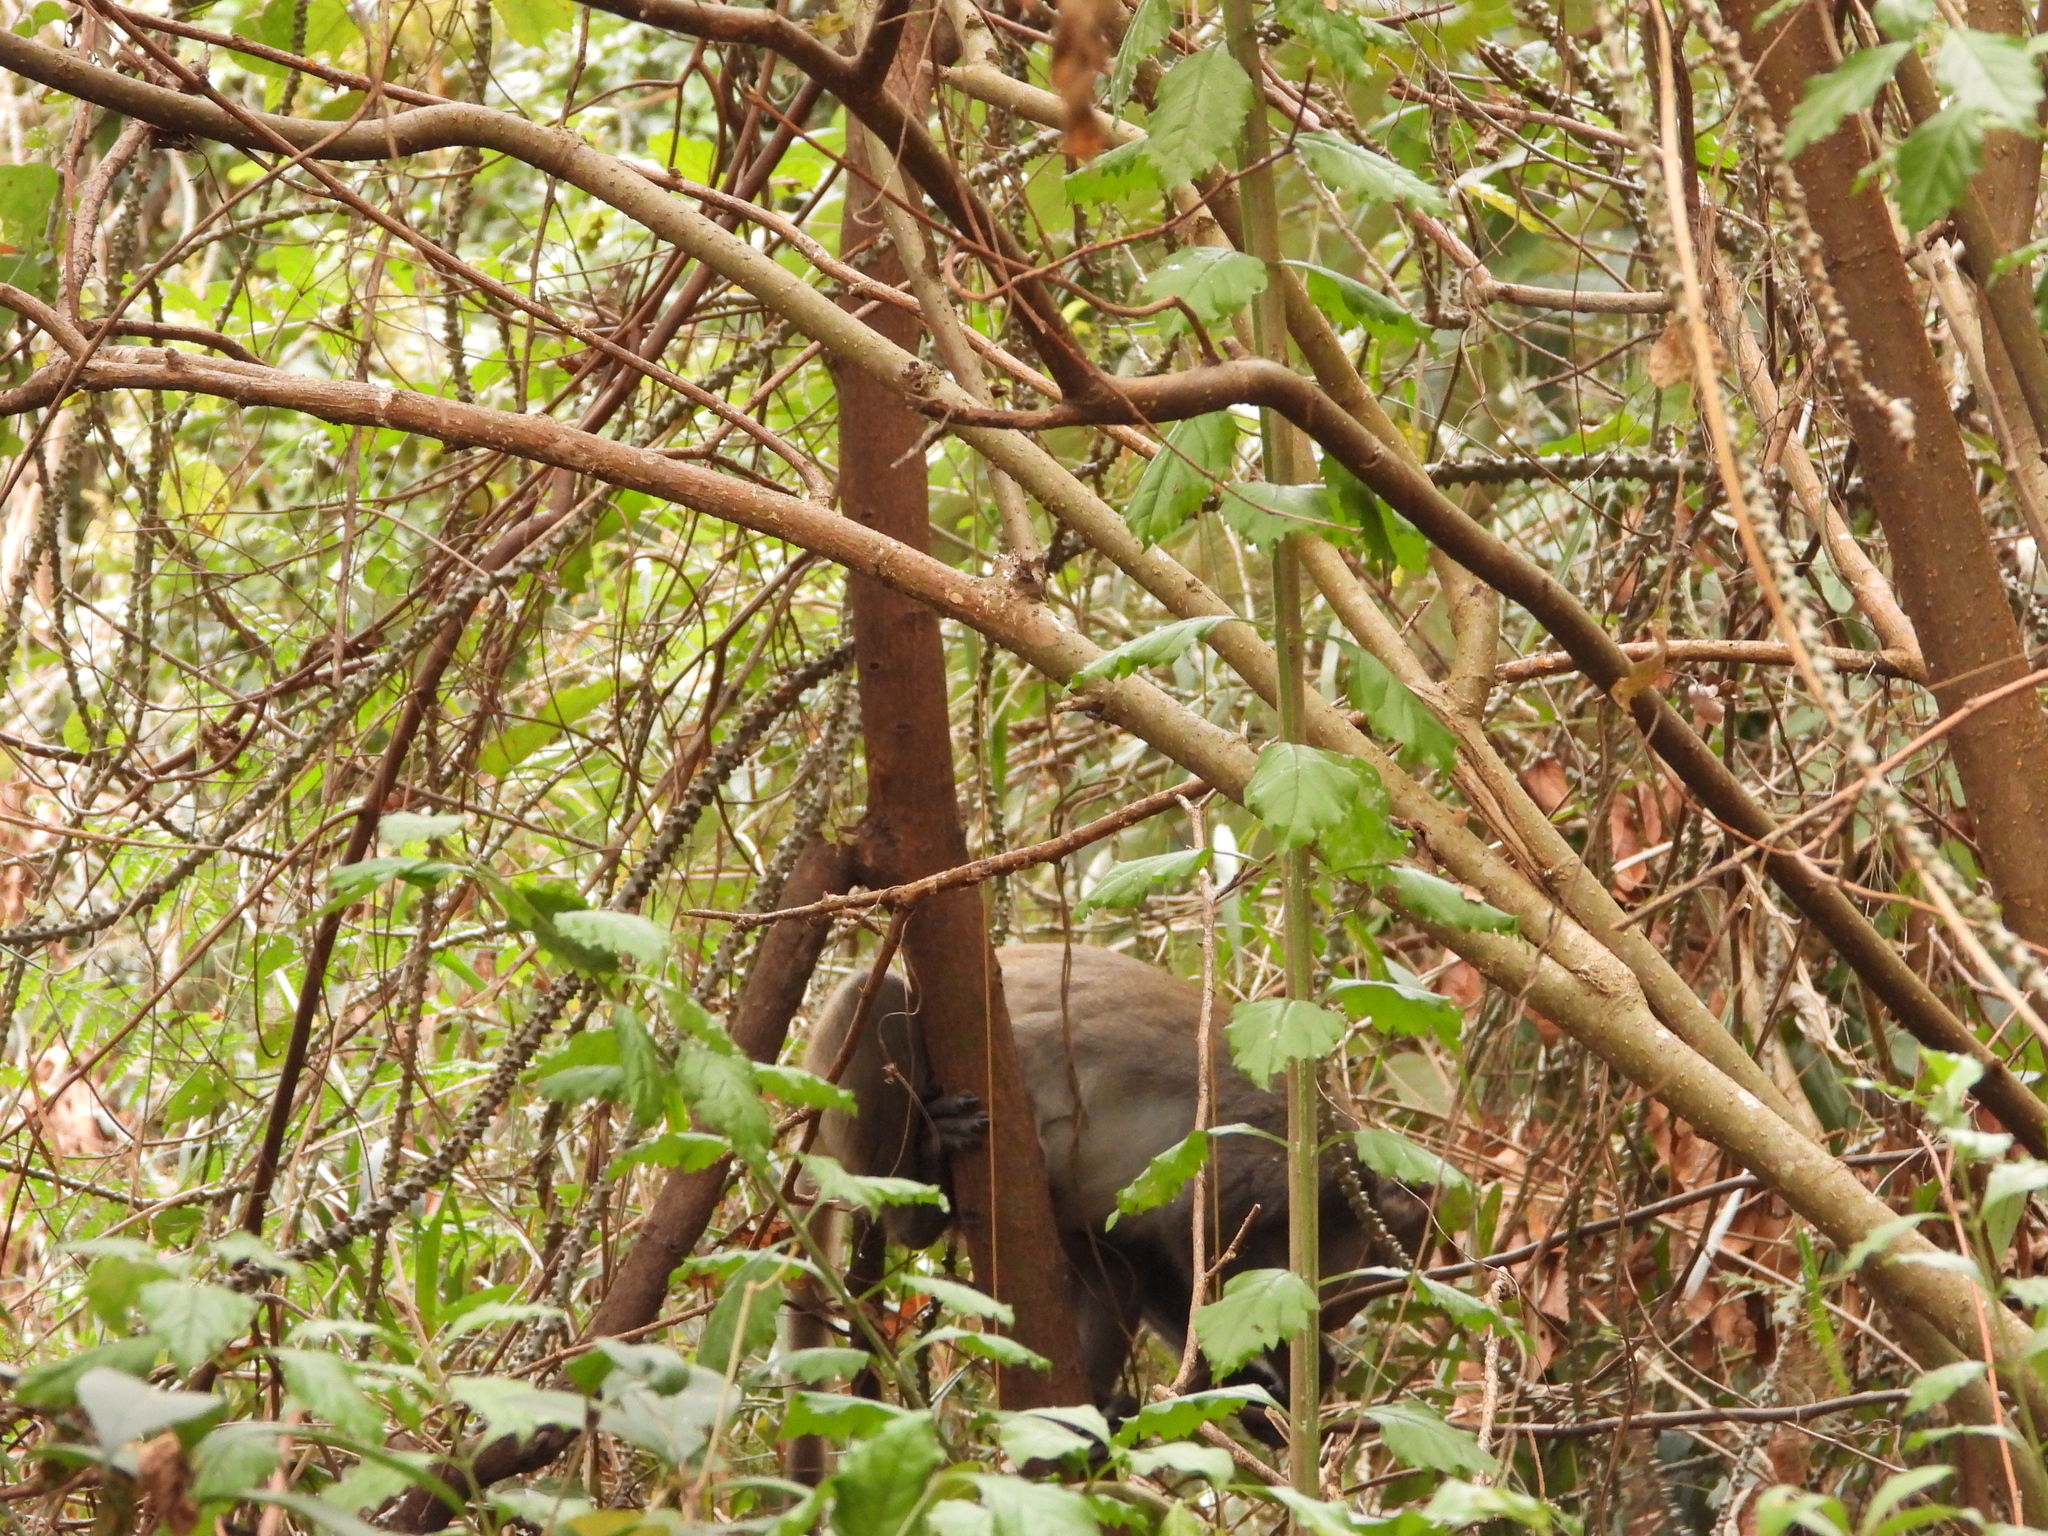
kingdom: Animalia
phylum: Chordata
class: Mammalia
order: Primates
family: Cercopithecidae
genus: Macaca
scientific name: Macaca cyclopis
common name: Formosan rock macaque
